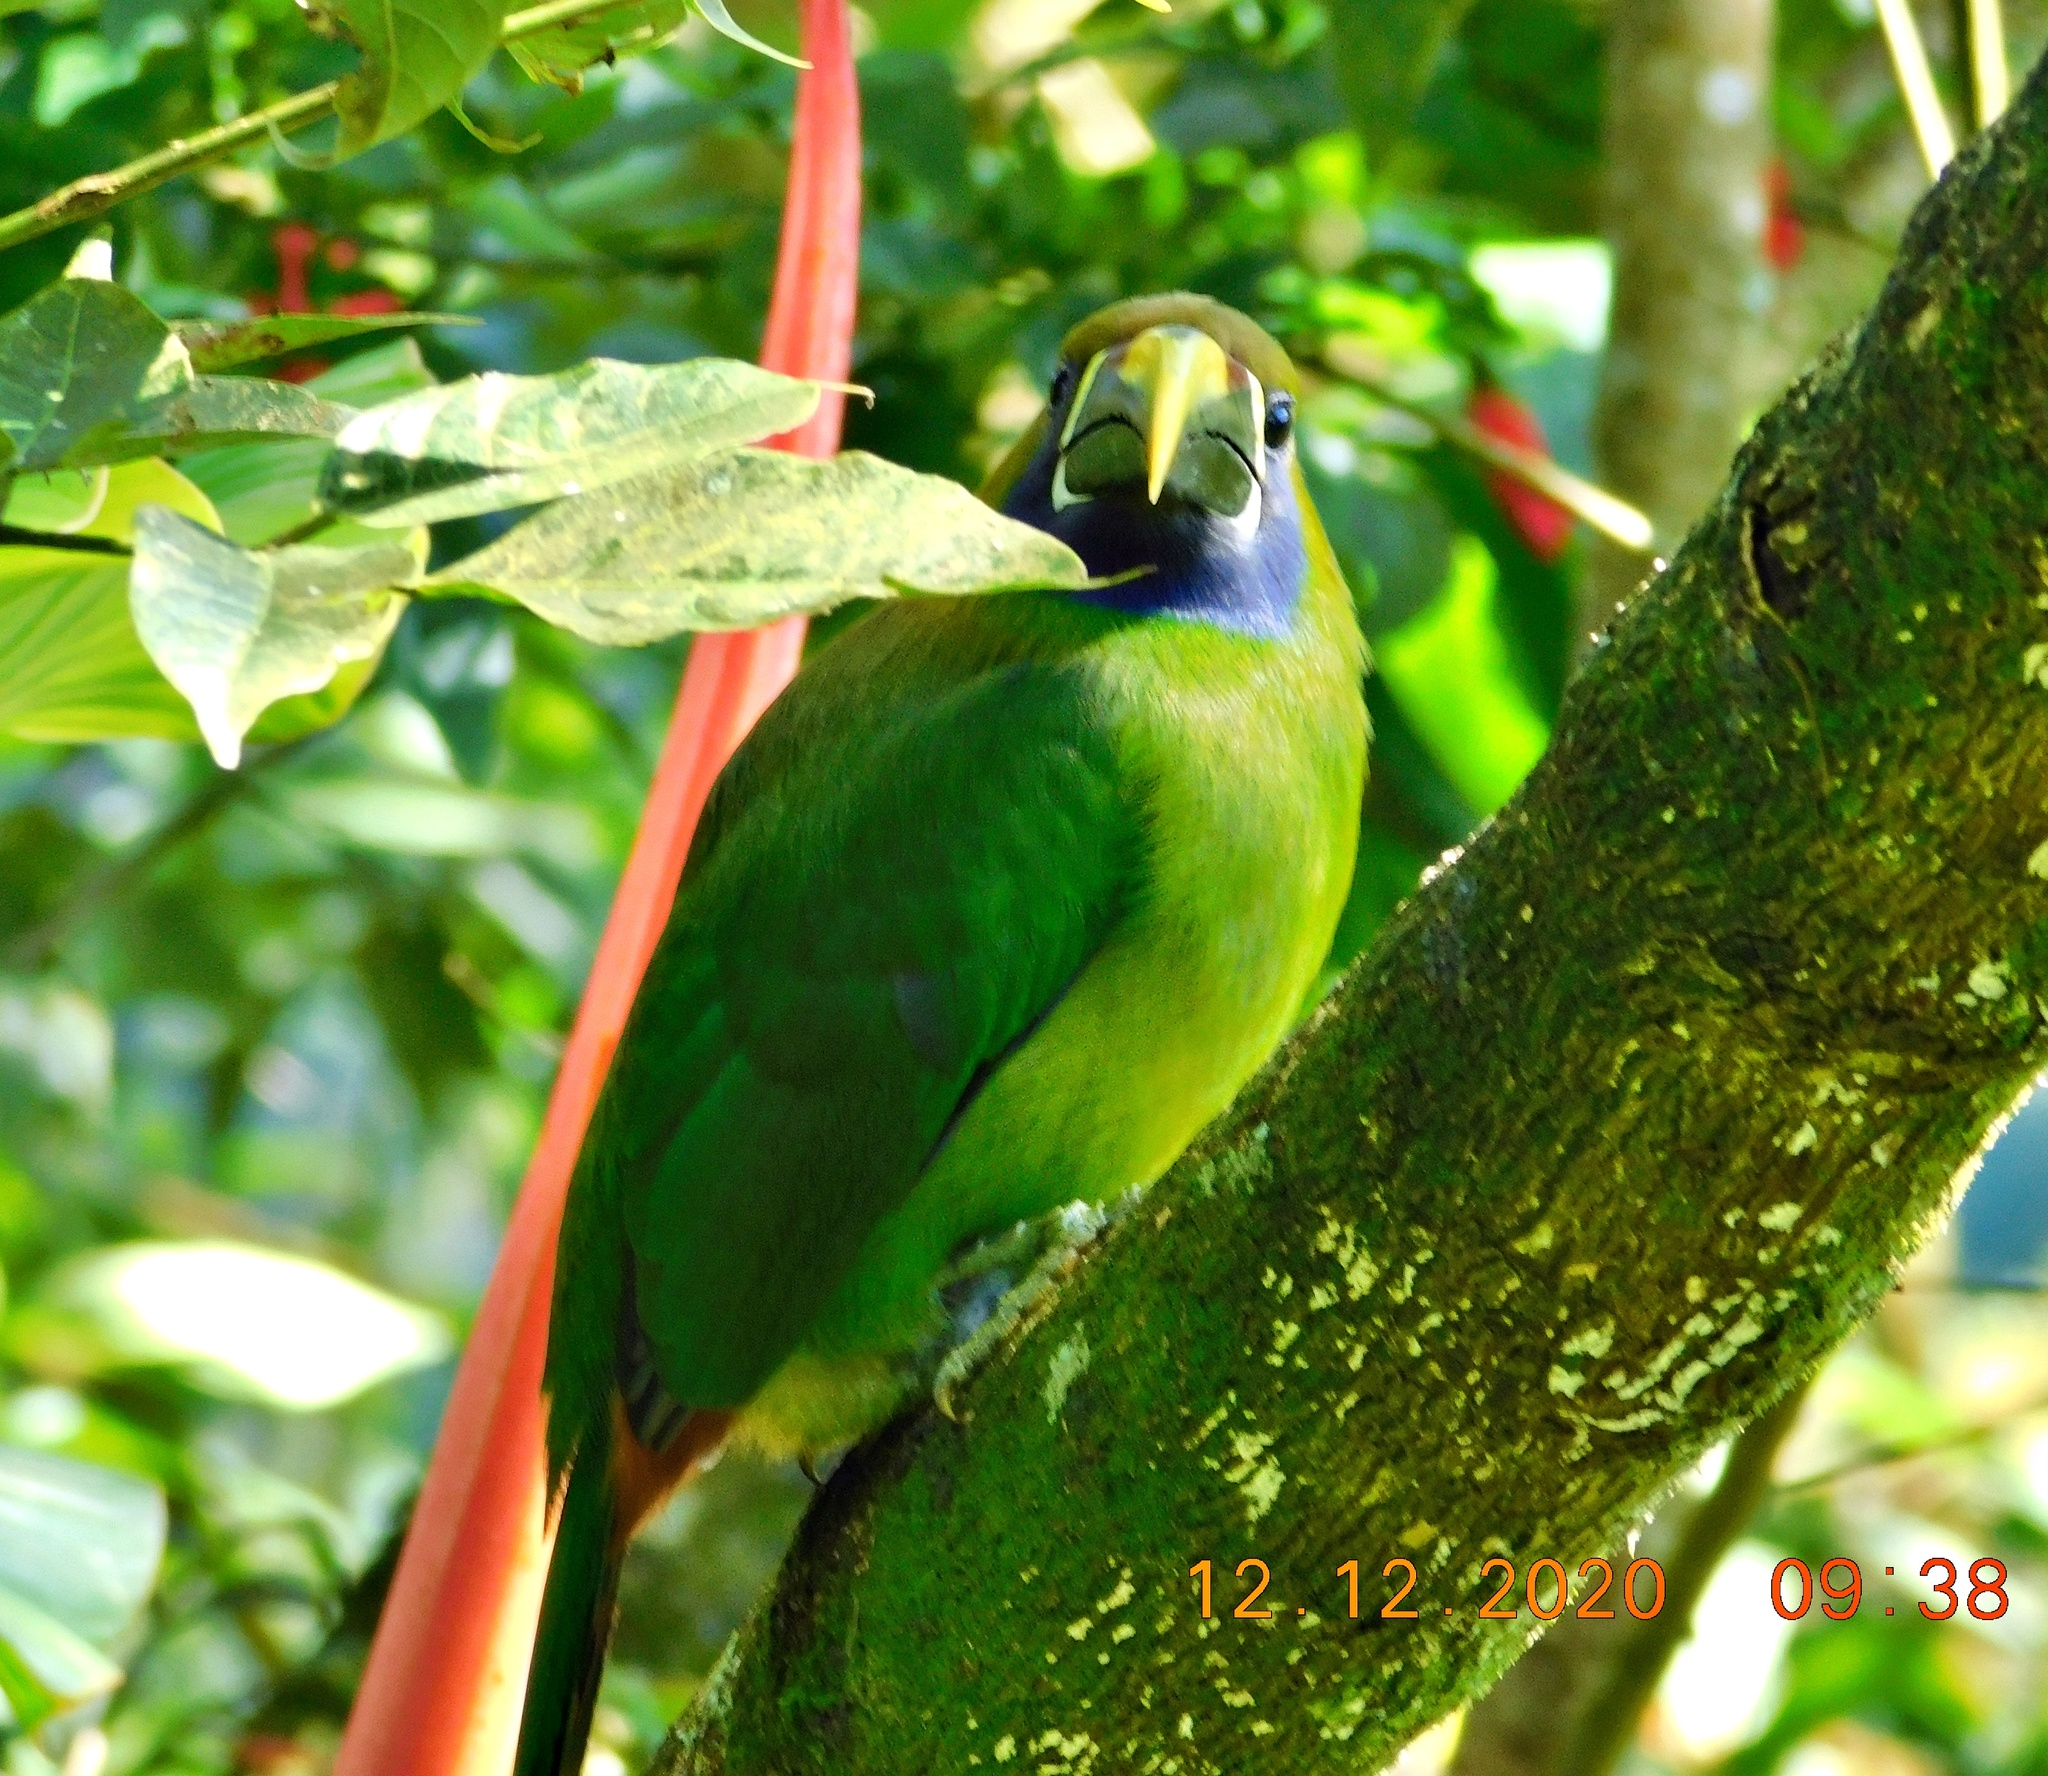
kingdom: Animalia
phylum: Chordata
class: Aves
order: Piciformes
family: Ramphastidae
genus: Aulacorhynchus
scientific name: Aulacorhynchus prasinus
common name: Emerald toucanet
